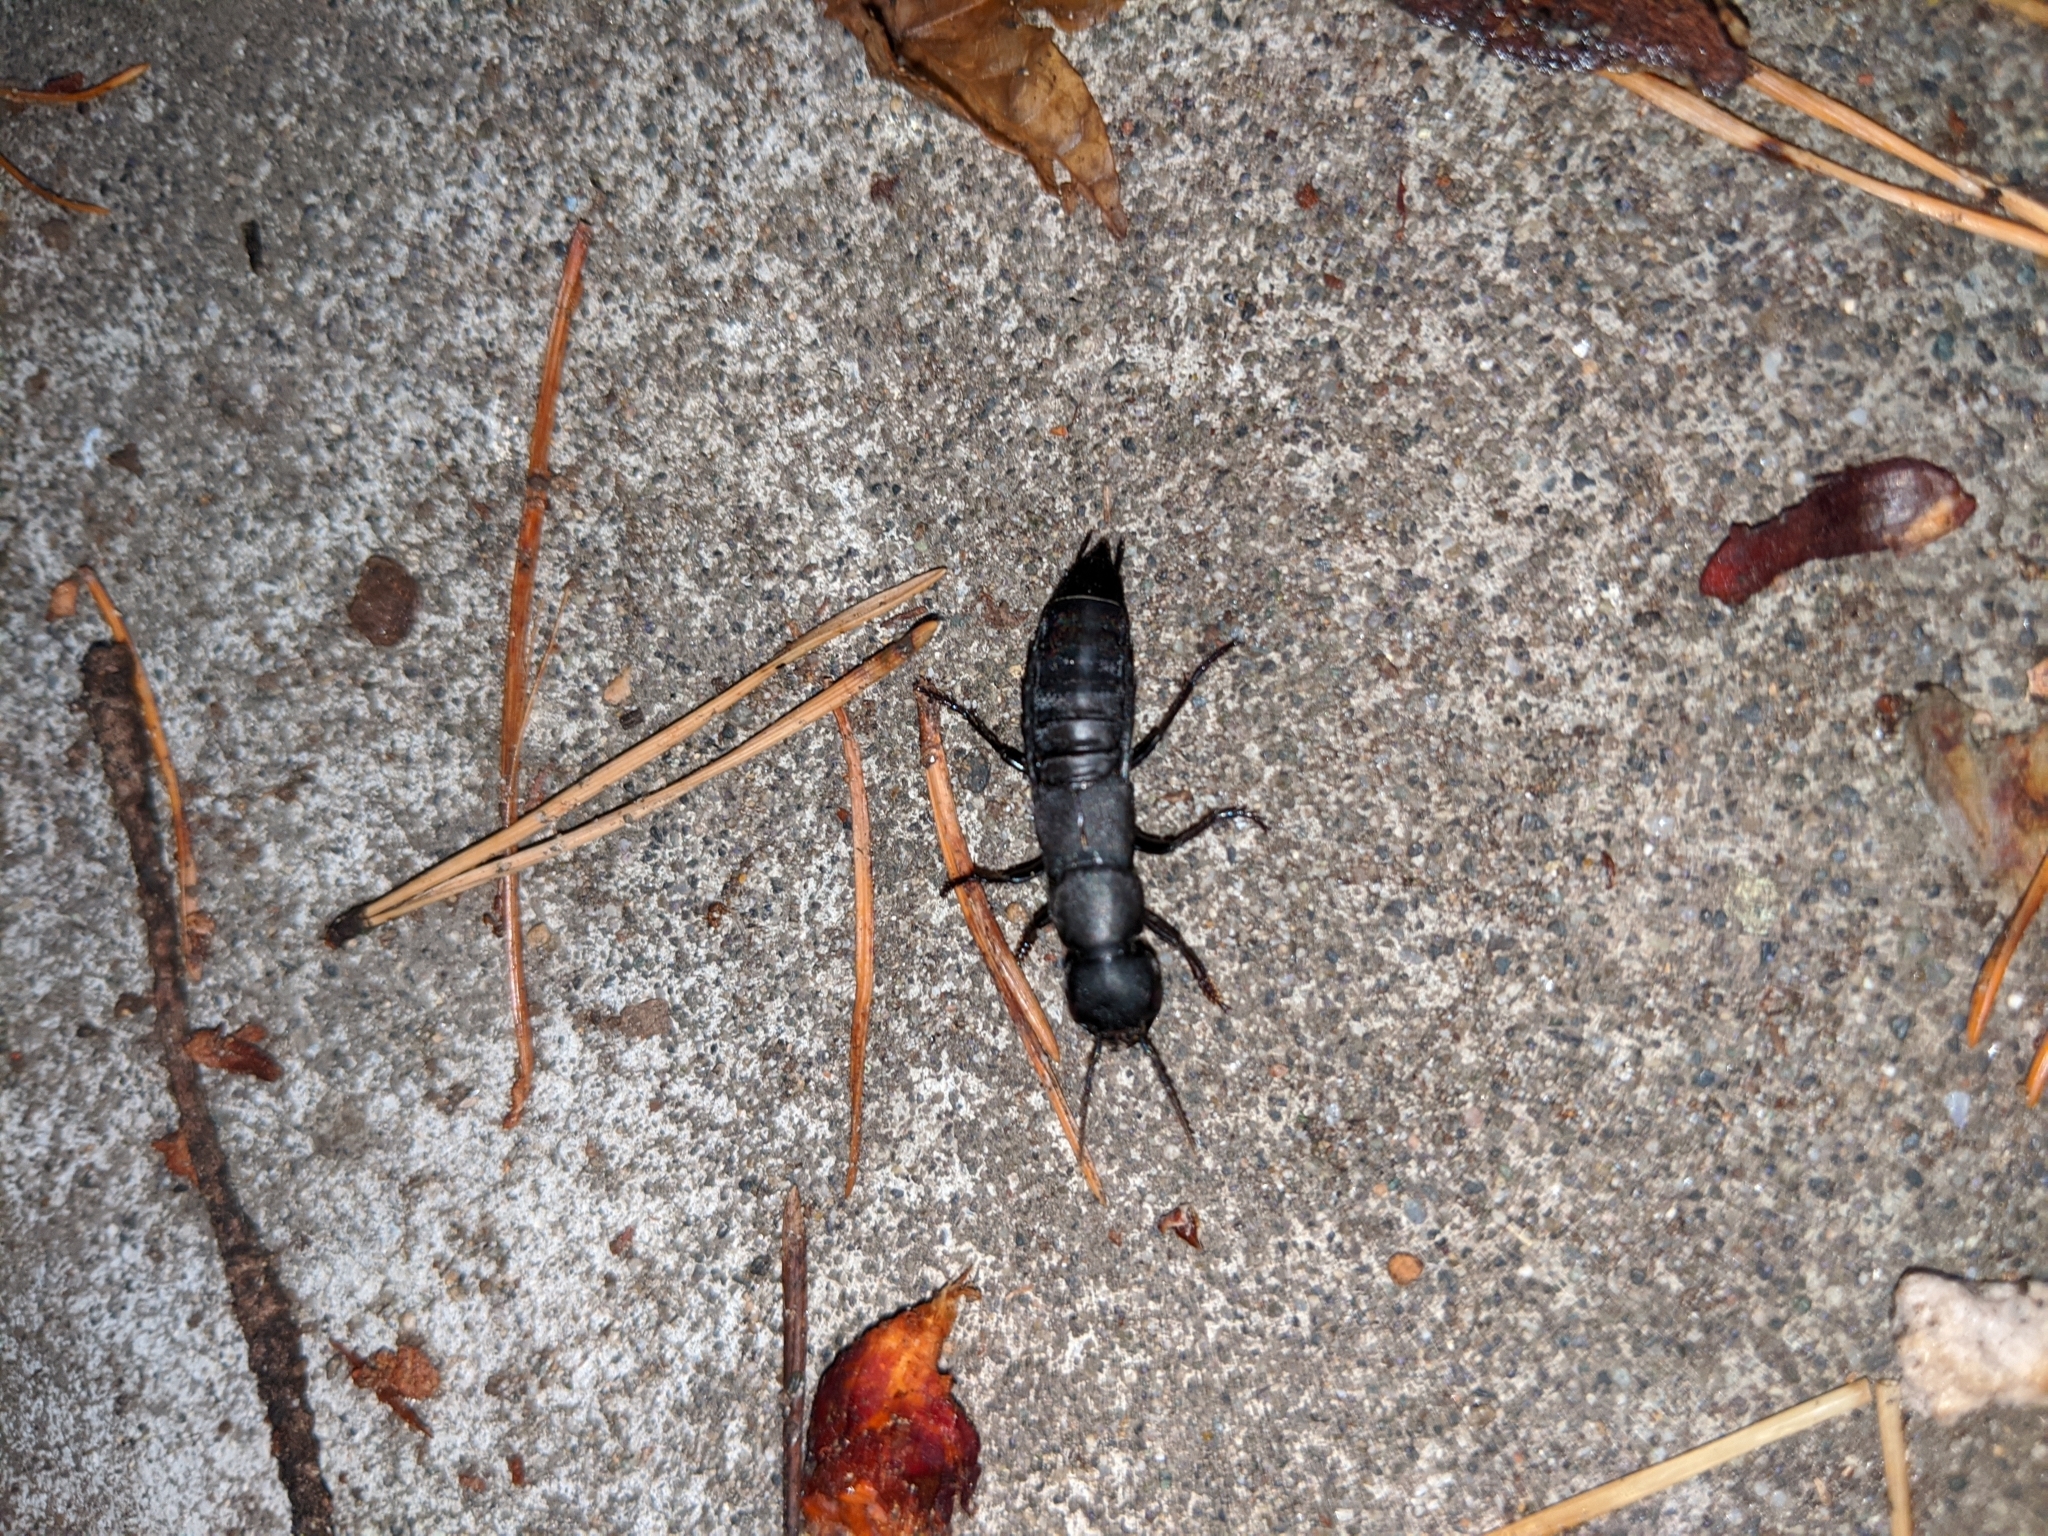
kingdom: Animalia
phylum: Arthropoda
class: Insecta
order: Coleoptera
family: Staphylinidae
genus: Ocypus
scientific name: Ocypus olens
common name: Devil's coach-horse
